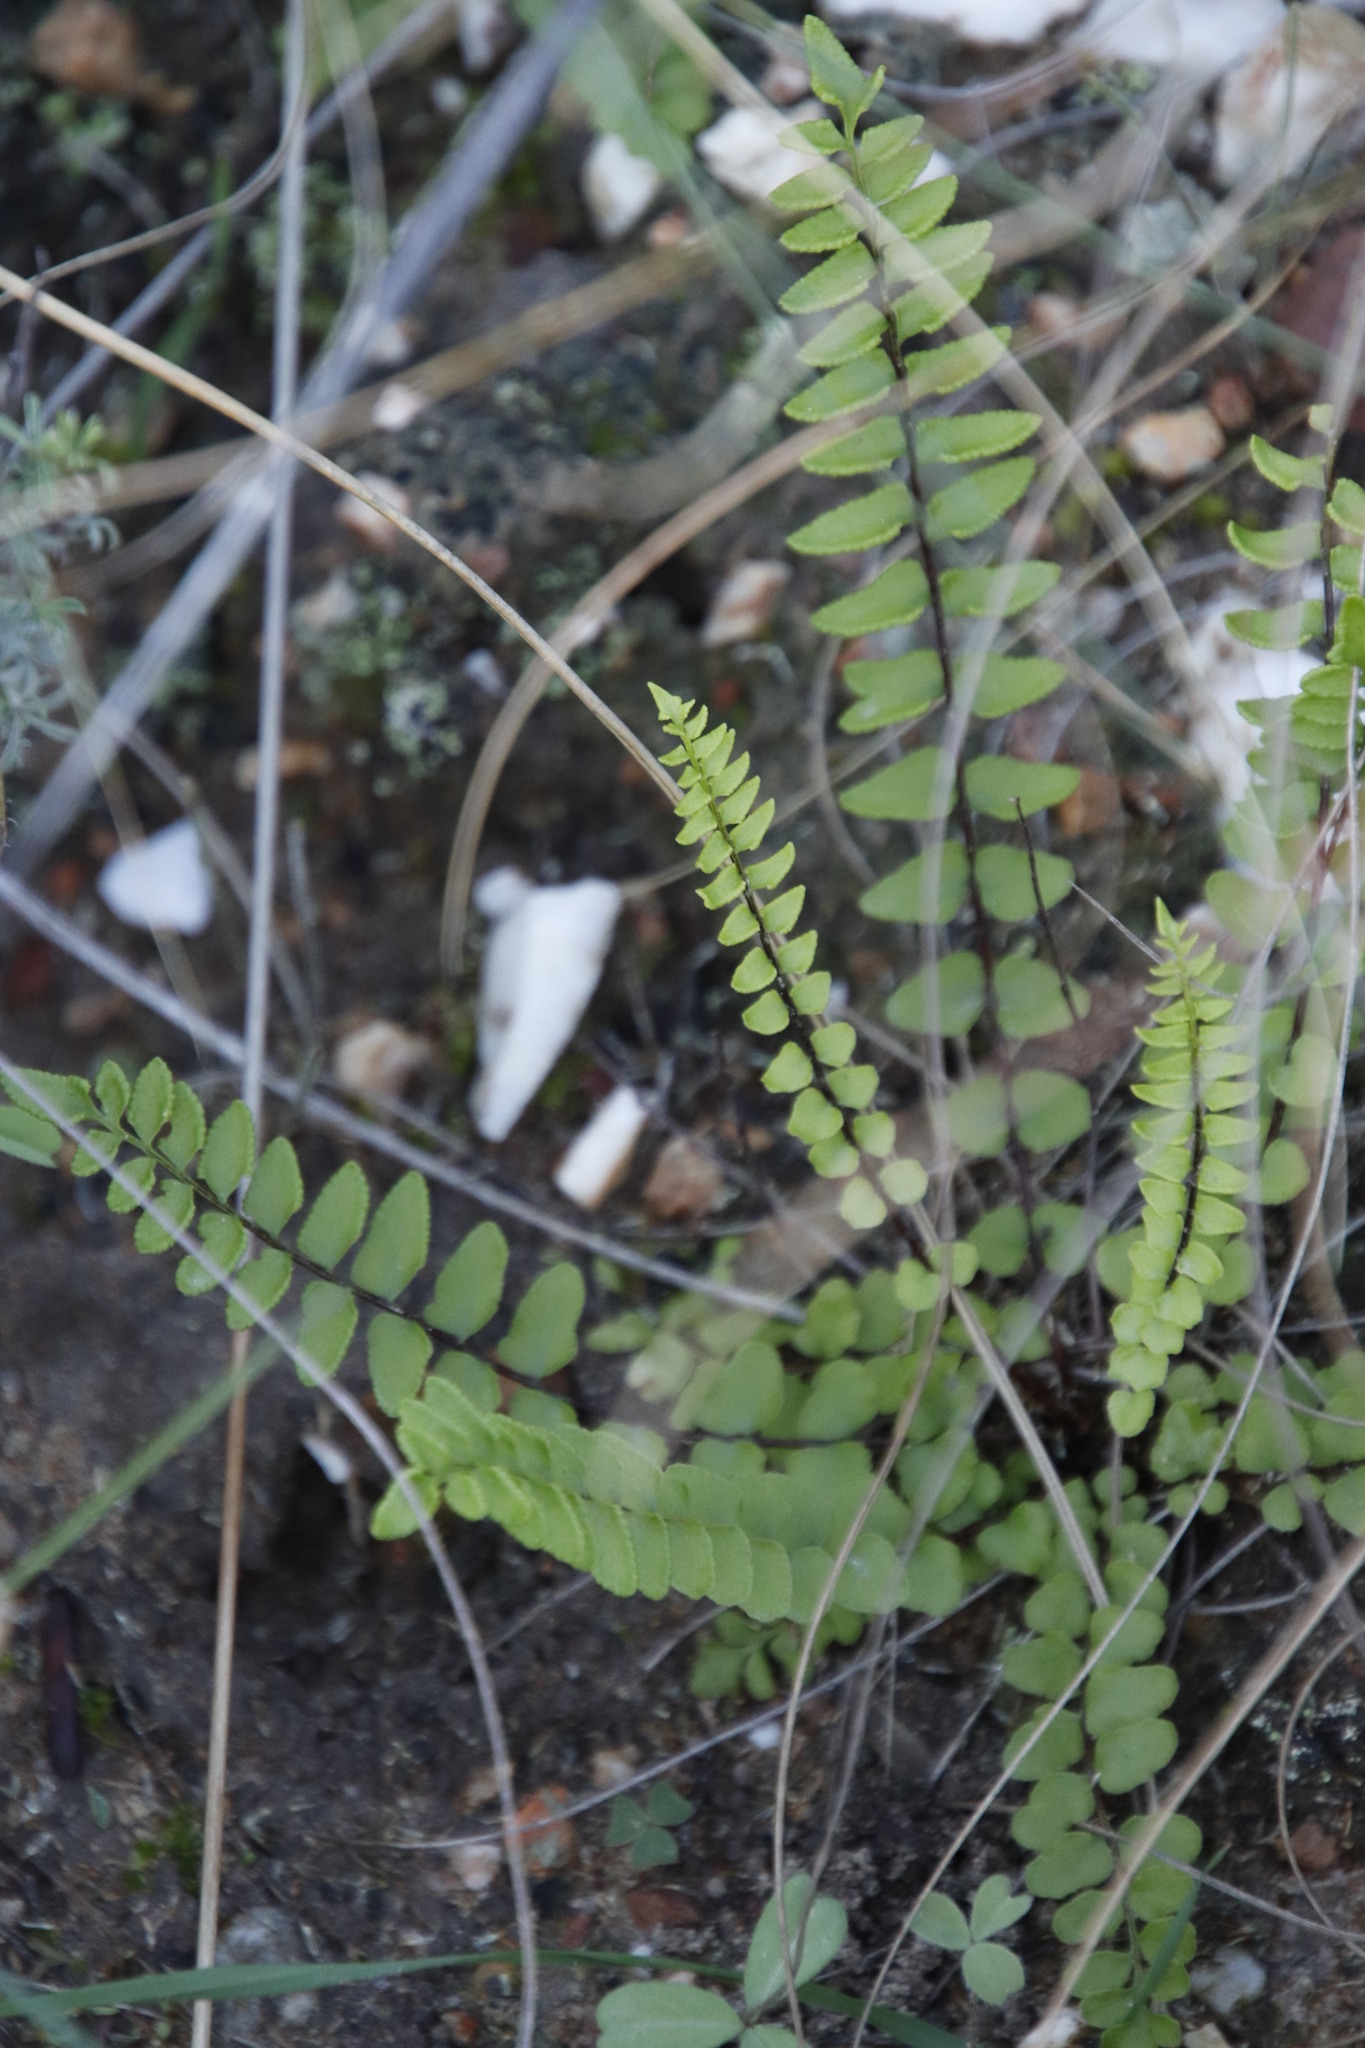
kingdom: Plantae
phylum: Tracheophyta
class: Polypodiopsida
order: Polypodiales
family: Pteridaceae
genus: Cheilanthes
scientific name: Cheilanthes hastata
